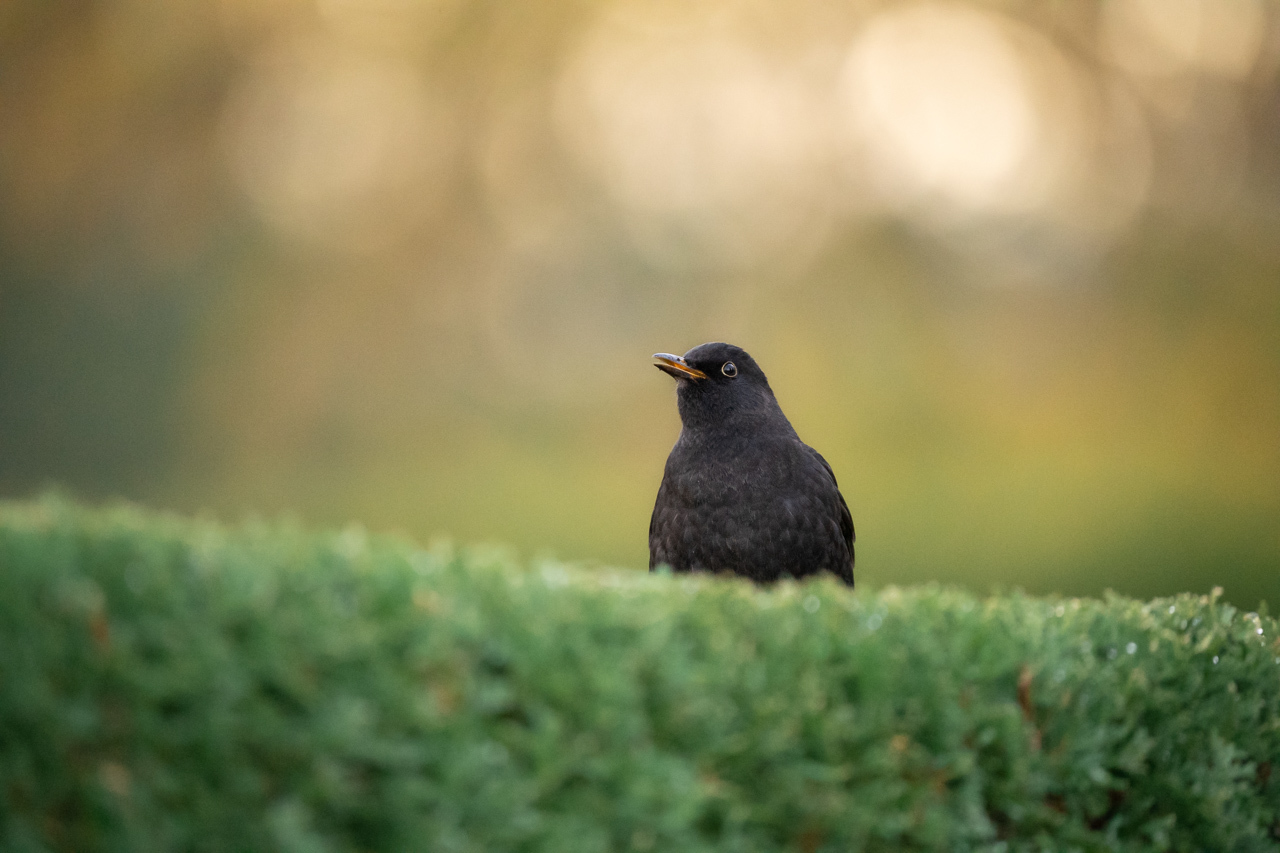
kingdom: Animalia
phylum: Chordata
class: Aves
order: Passeriformes
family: Turdidae
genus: Turdus
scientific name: Turdus merula
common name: Common blackbird
